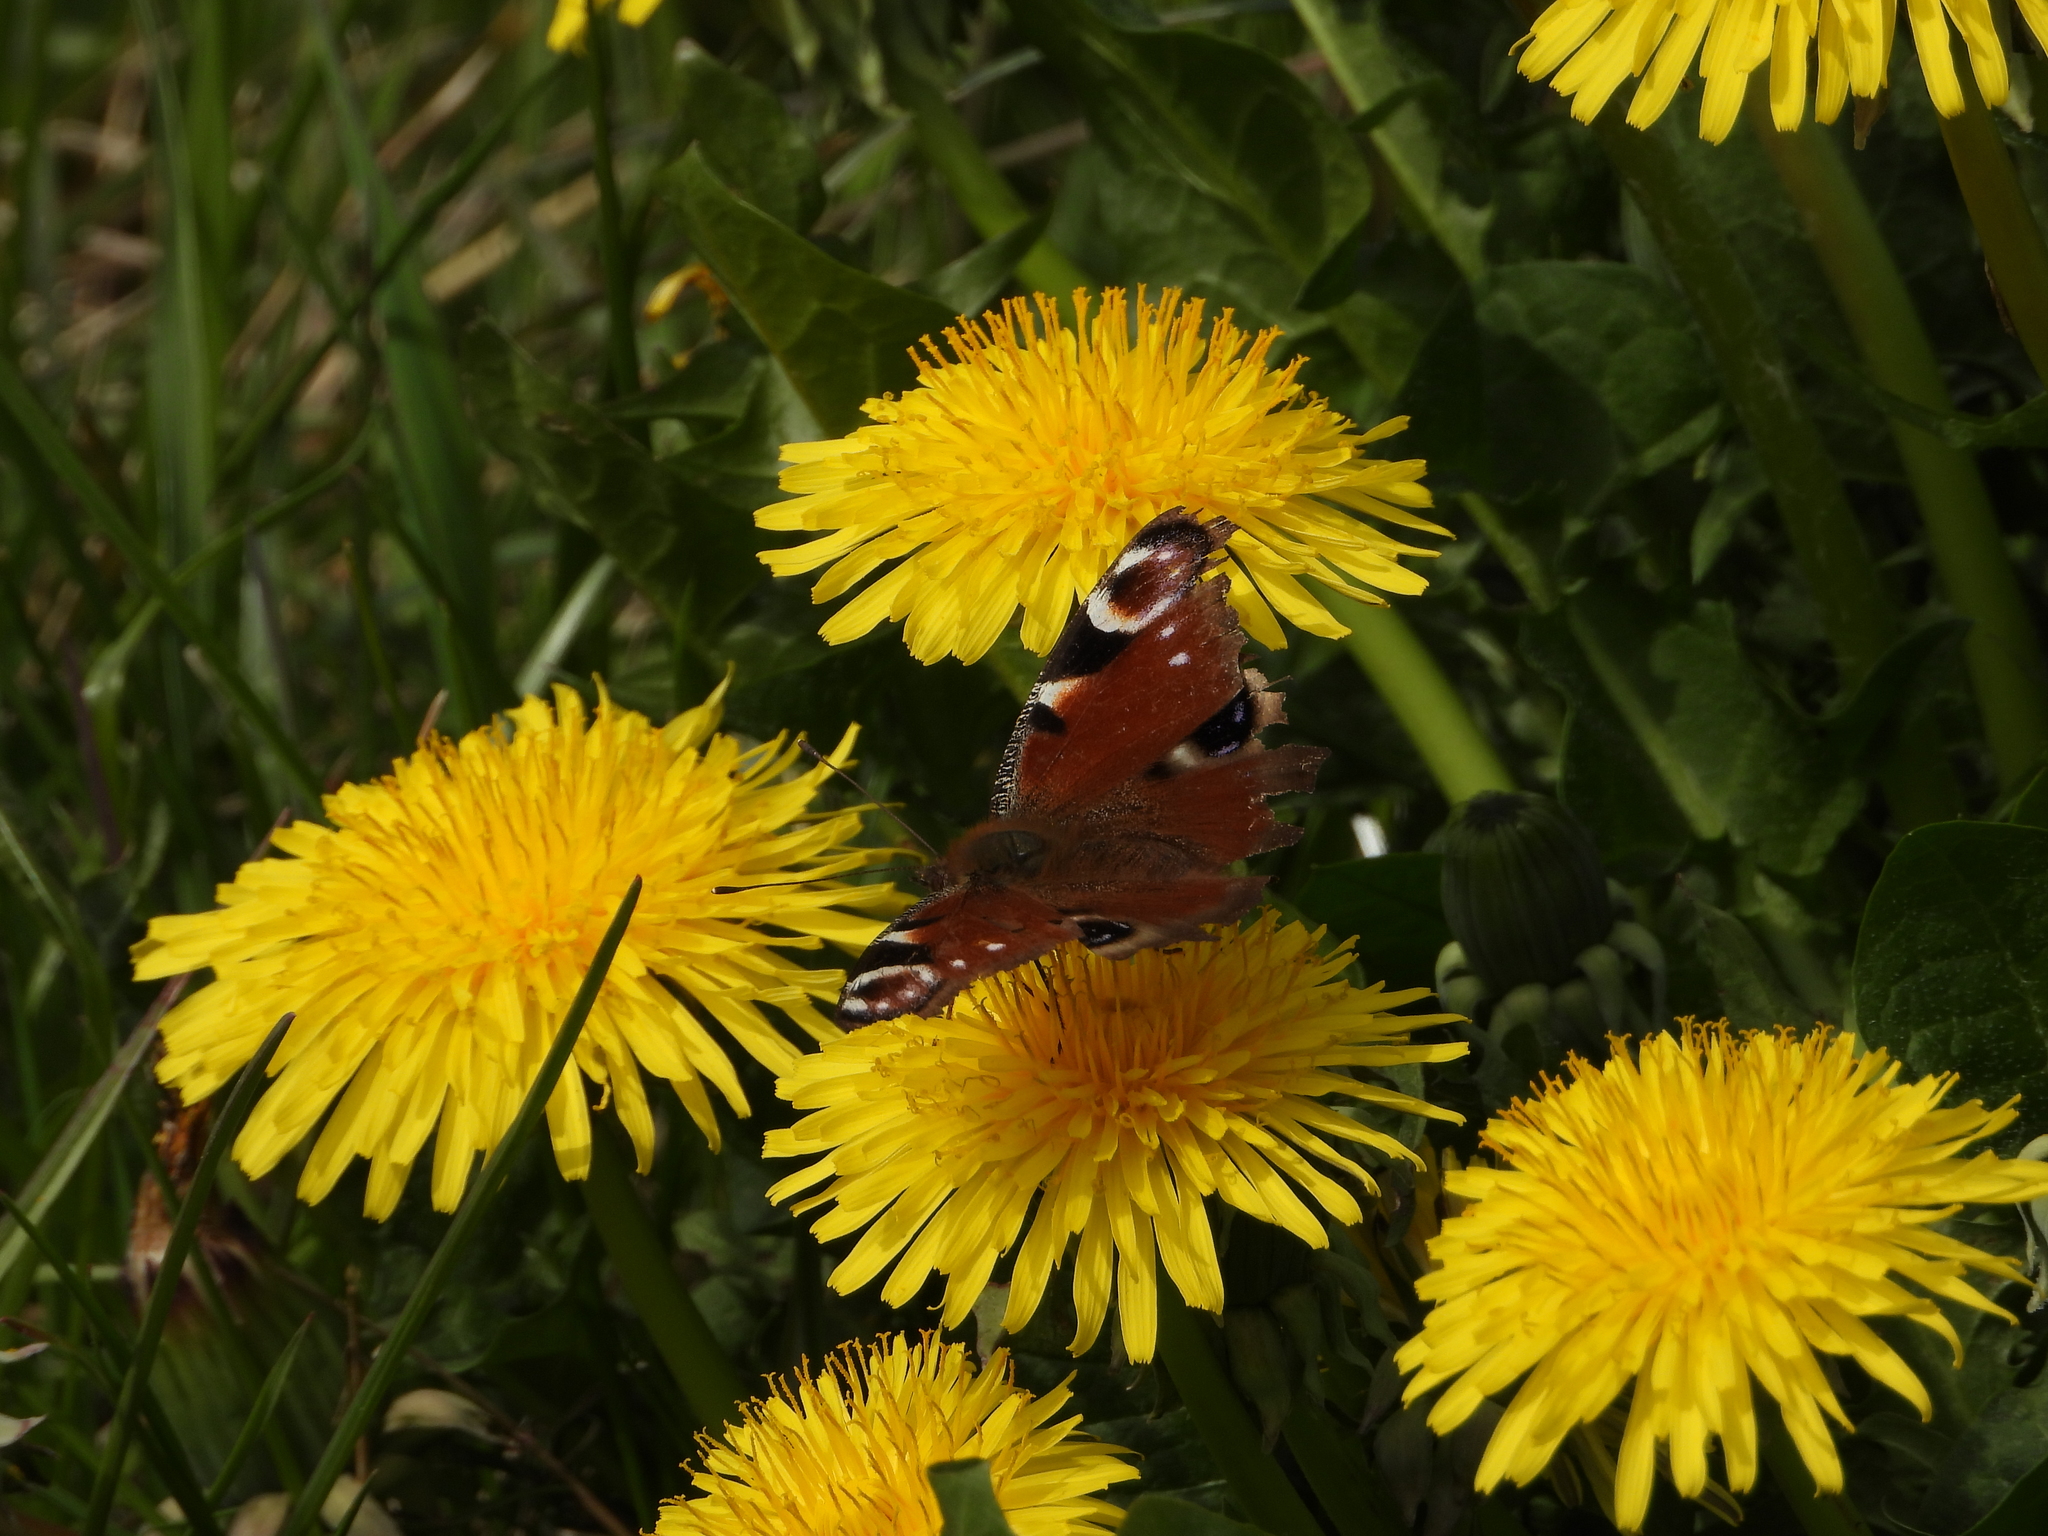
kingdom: Animalia
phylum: Arthropoda
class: Insecta
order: Lepidoptera
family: Nymphalidae
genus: Aglais
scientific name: Aglais io
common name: Peacock
